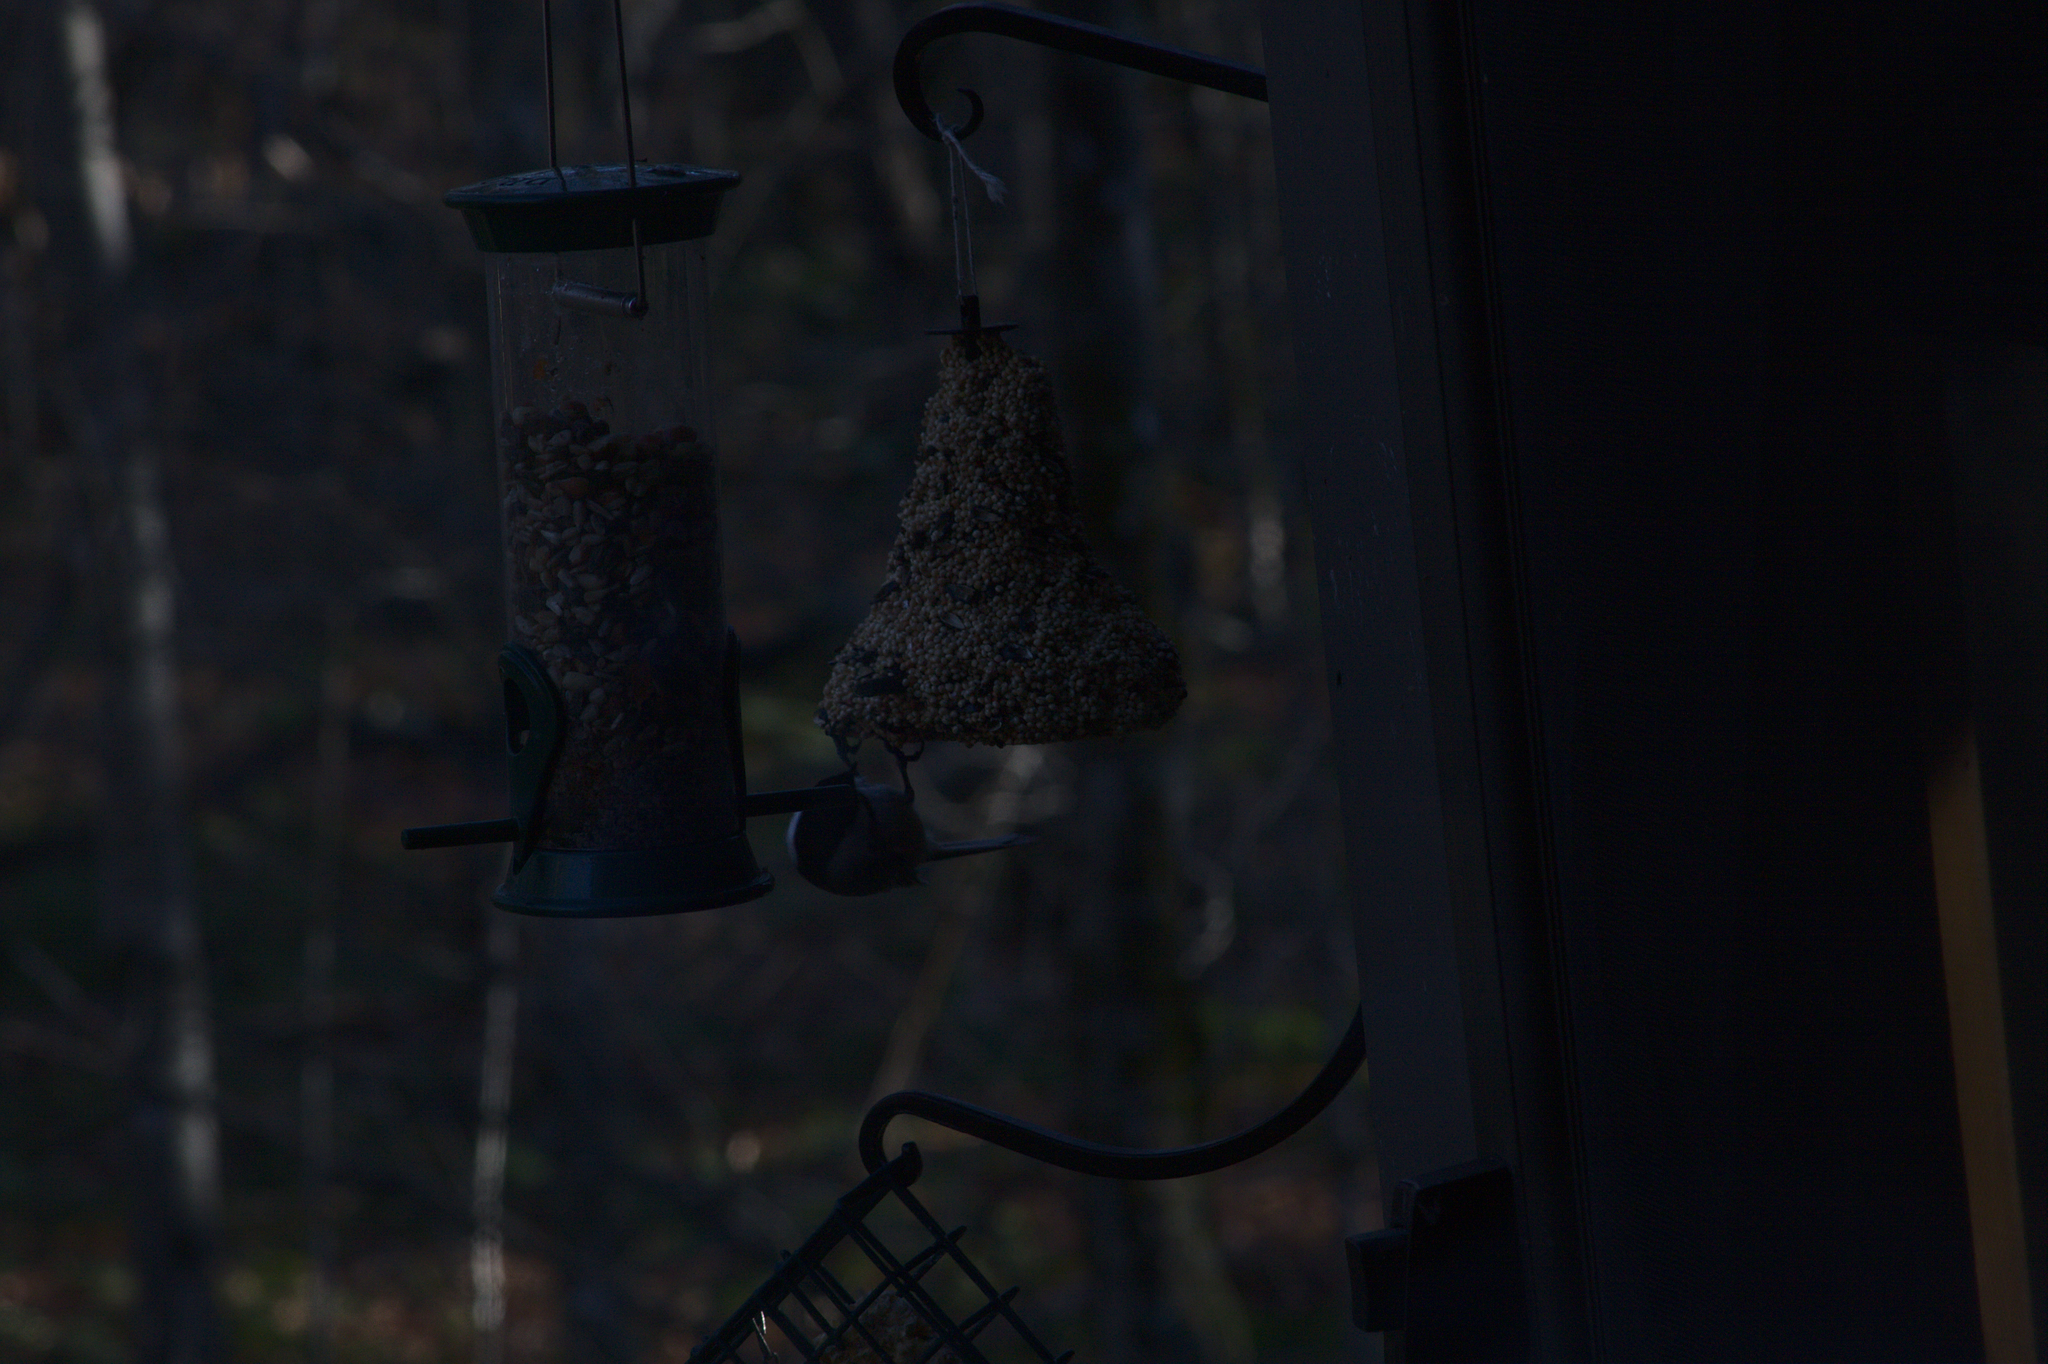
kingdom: Animalia
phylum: Chordata
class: Aves
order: Passeriformes
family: Paridae
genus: Poecile
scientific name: Poecile atricapillus
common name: Black-capped chickadee
